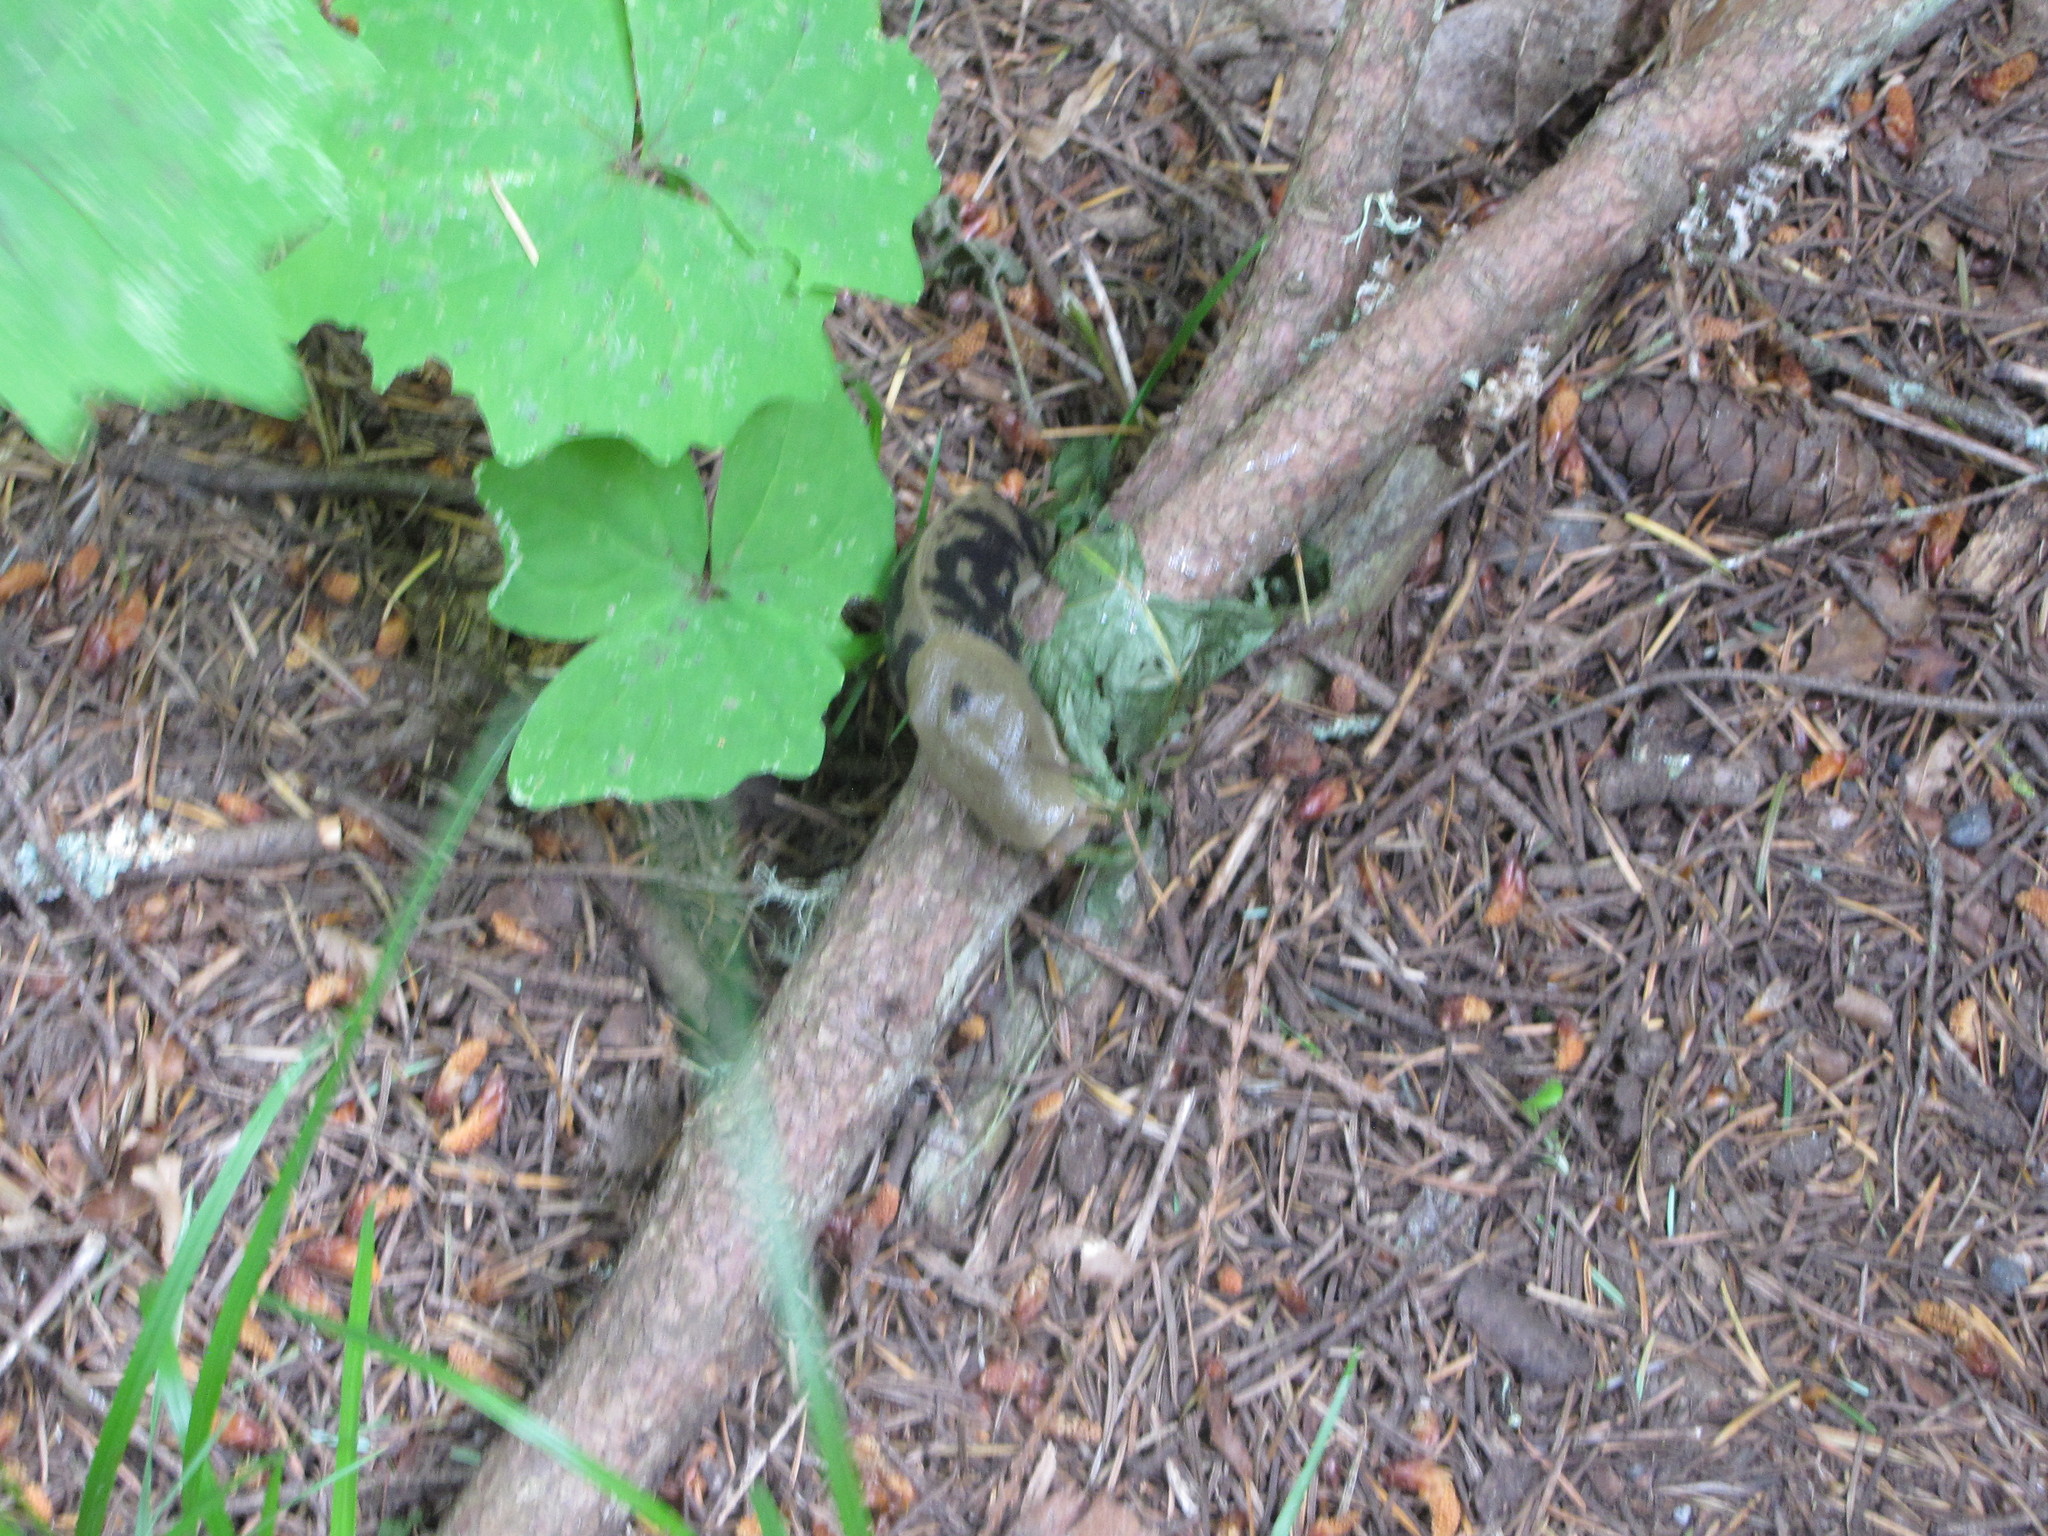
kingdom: Animalia
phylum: Mollusca
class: Gastropoda
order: Stylommatophora
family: Ariolimacidae
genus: Ariolimax
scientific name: Ariolimax columbianus
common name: Pacific banana slug
